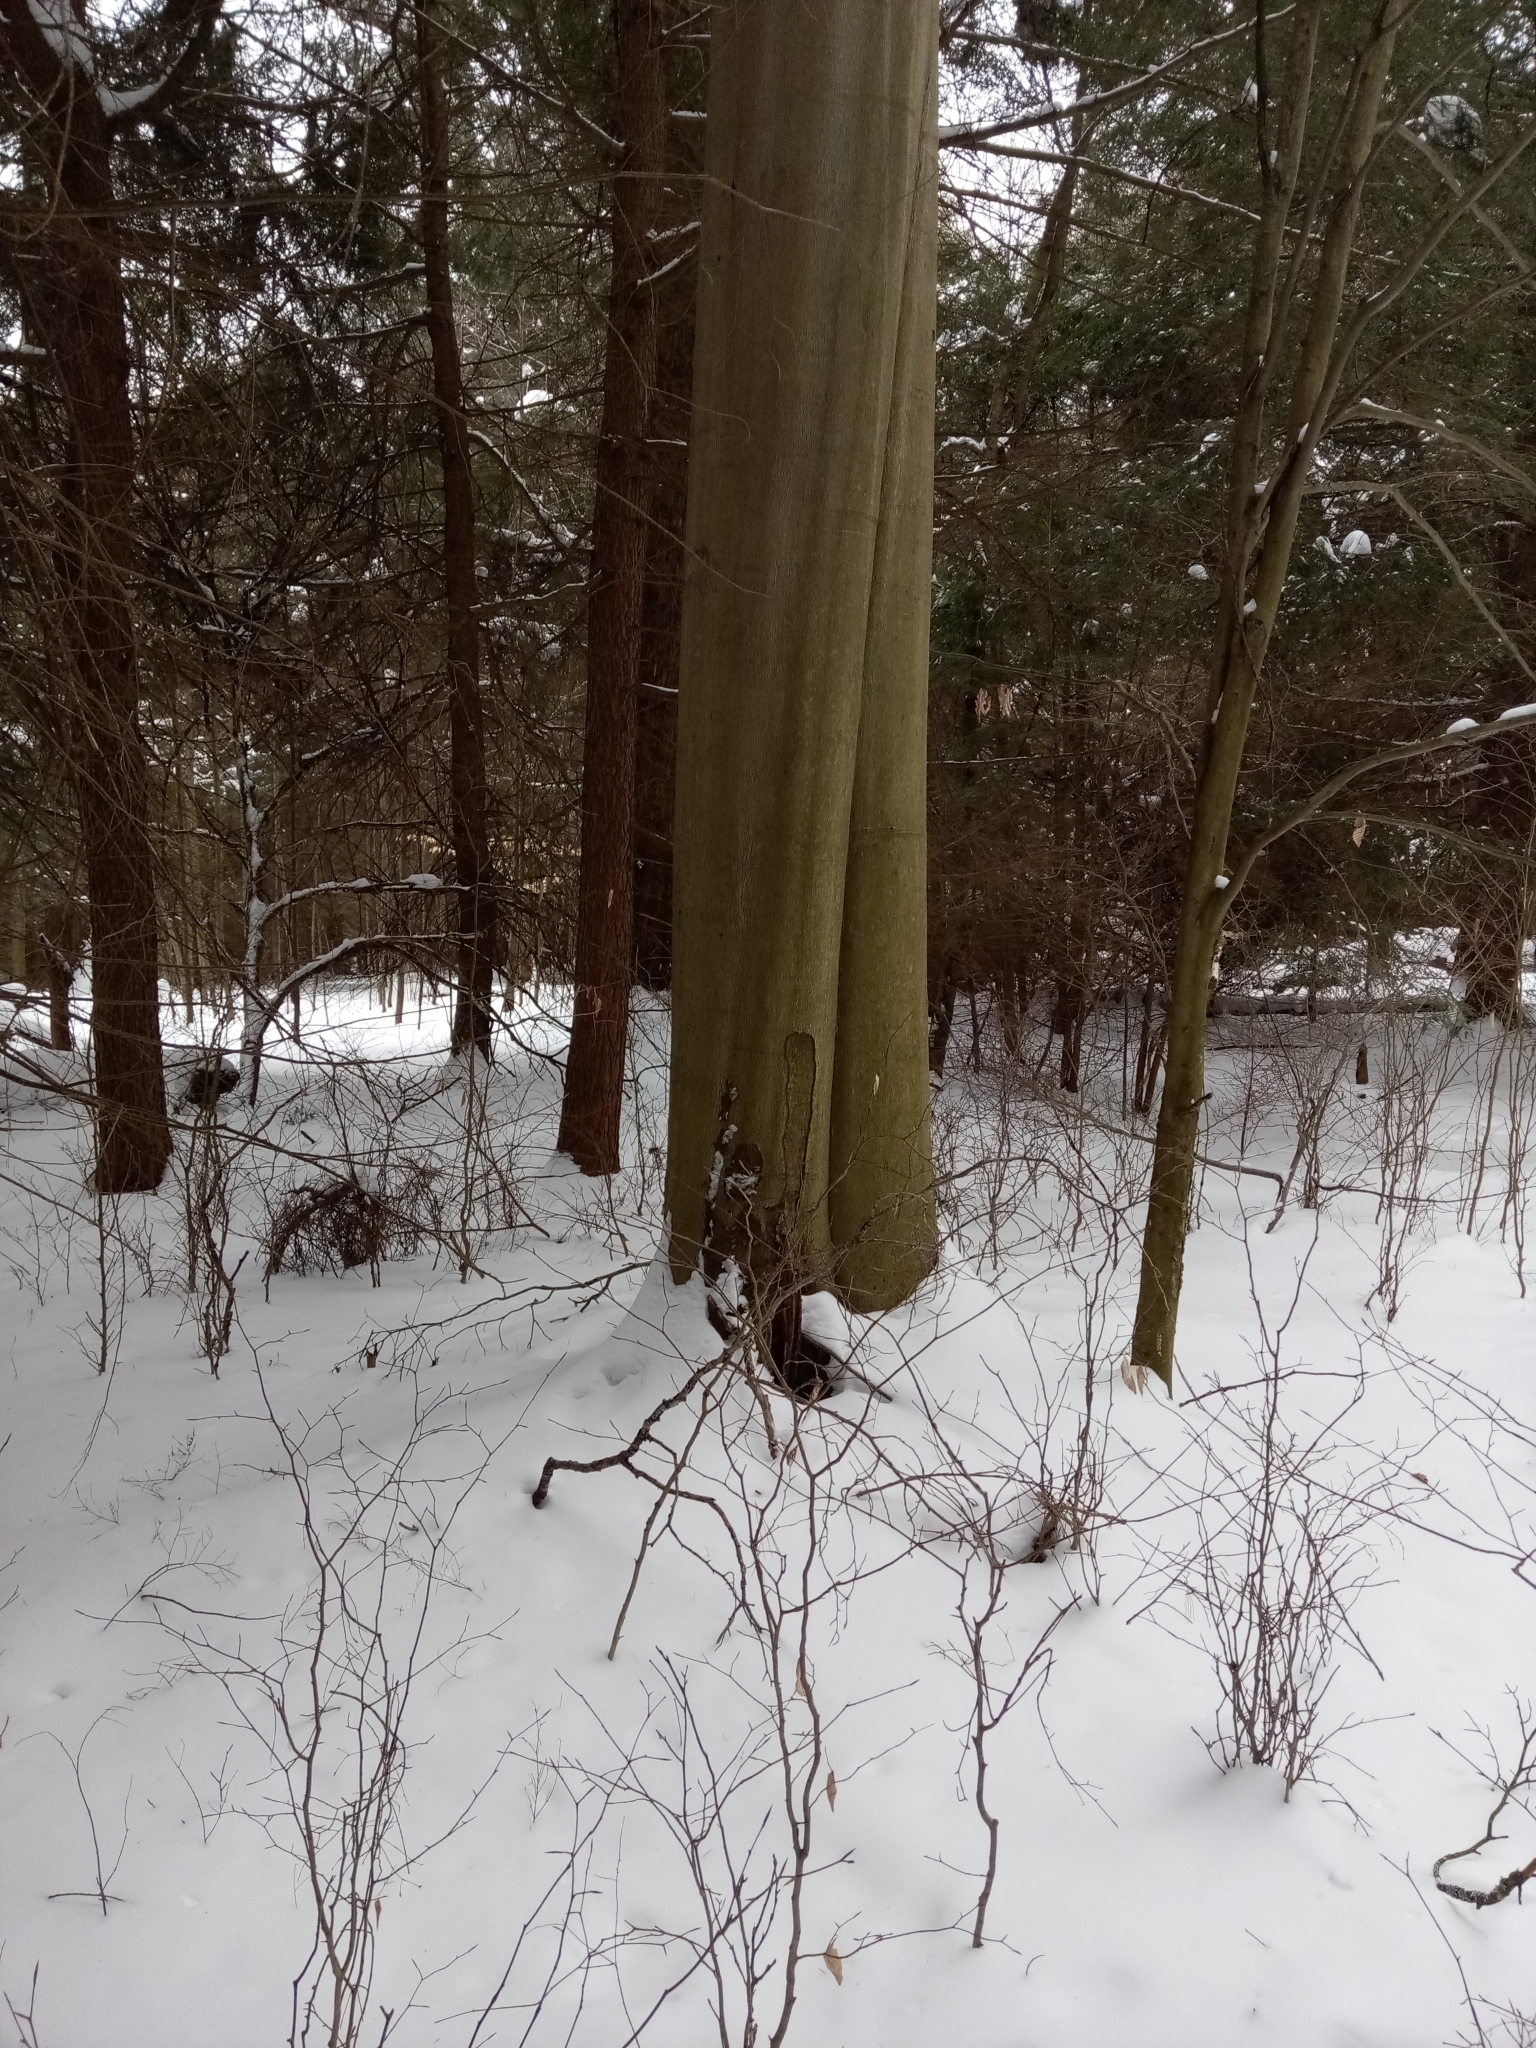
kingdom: Plantae
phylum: Tracheophyta
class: Magnoliopsida
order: Fagales
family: Fagaceae
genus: Fagus
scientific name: Fagus grandifolia
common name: American beech
